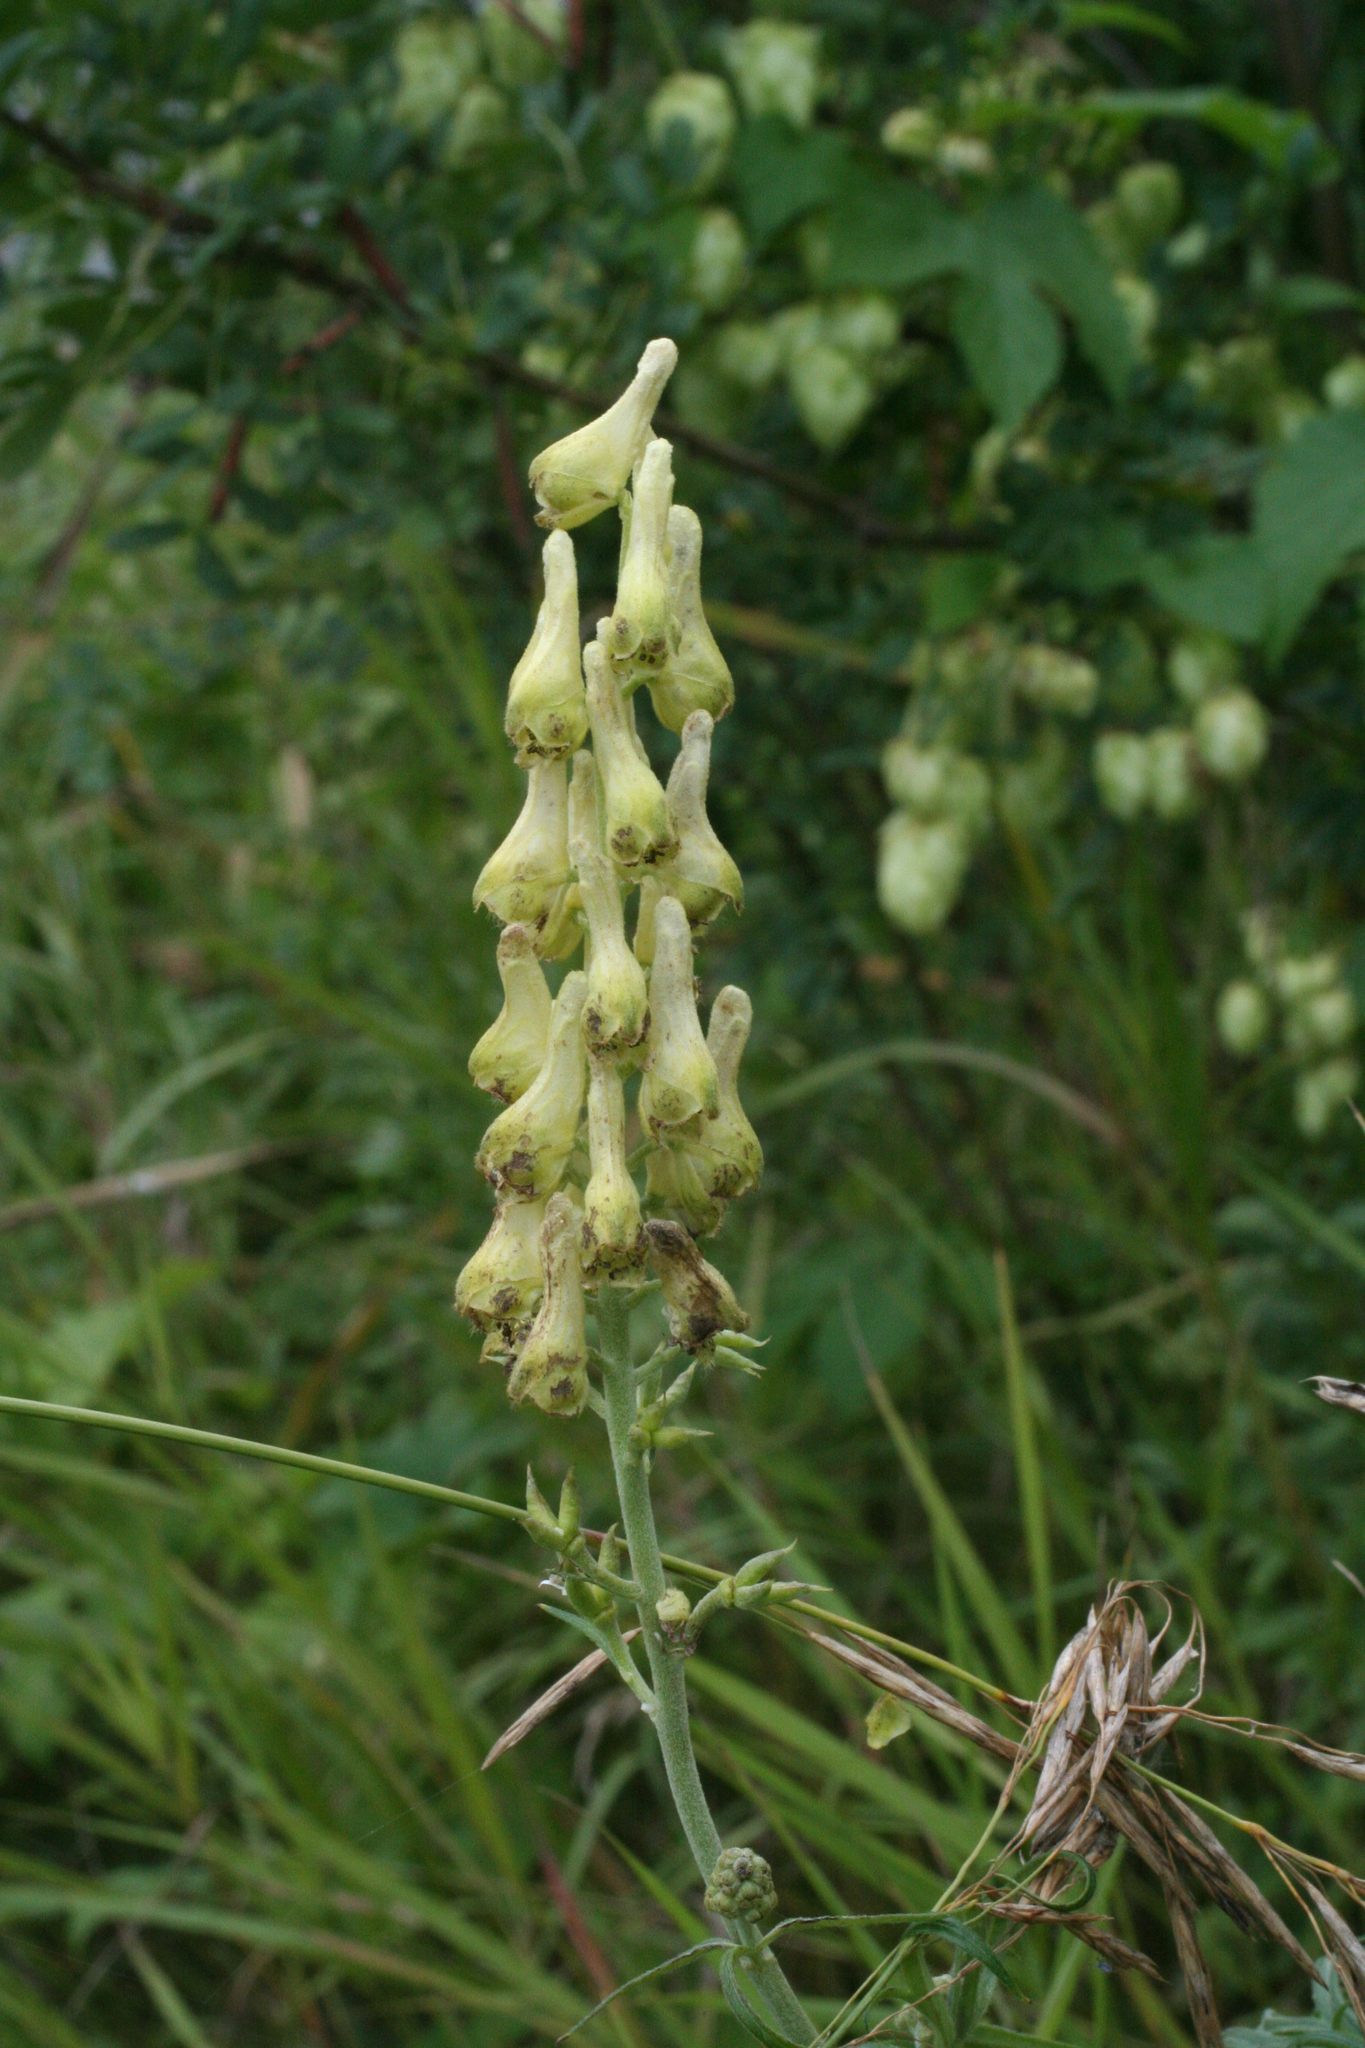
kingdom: Plantae
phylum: Tracheophyta
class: Magnoliopsida
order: Ranunculales
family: Ranunculaceae
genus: Aconitum
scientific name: Aconitum barbatum
